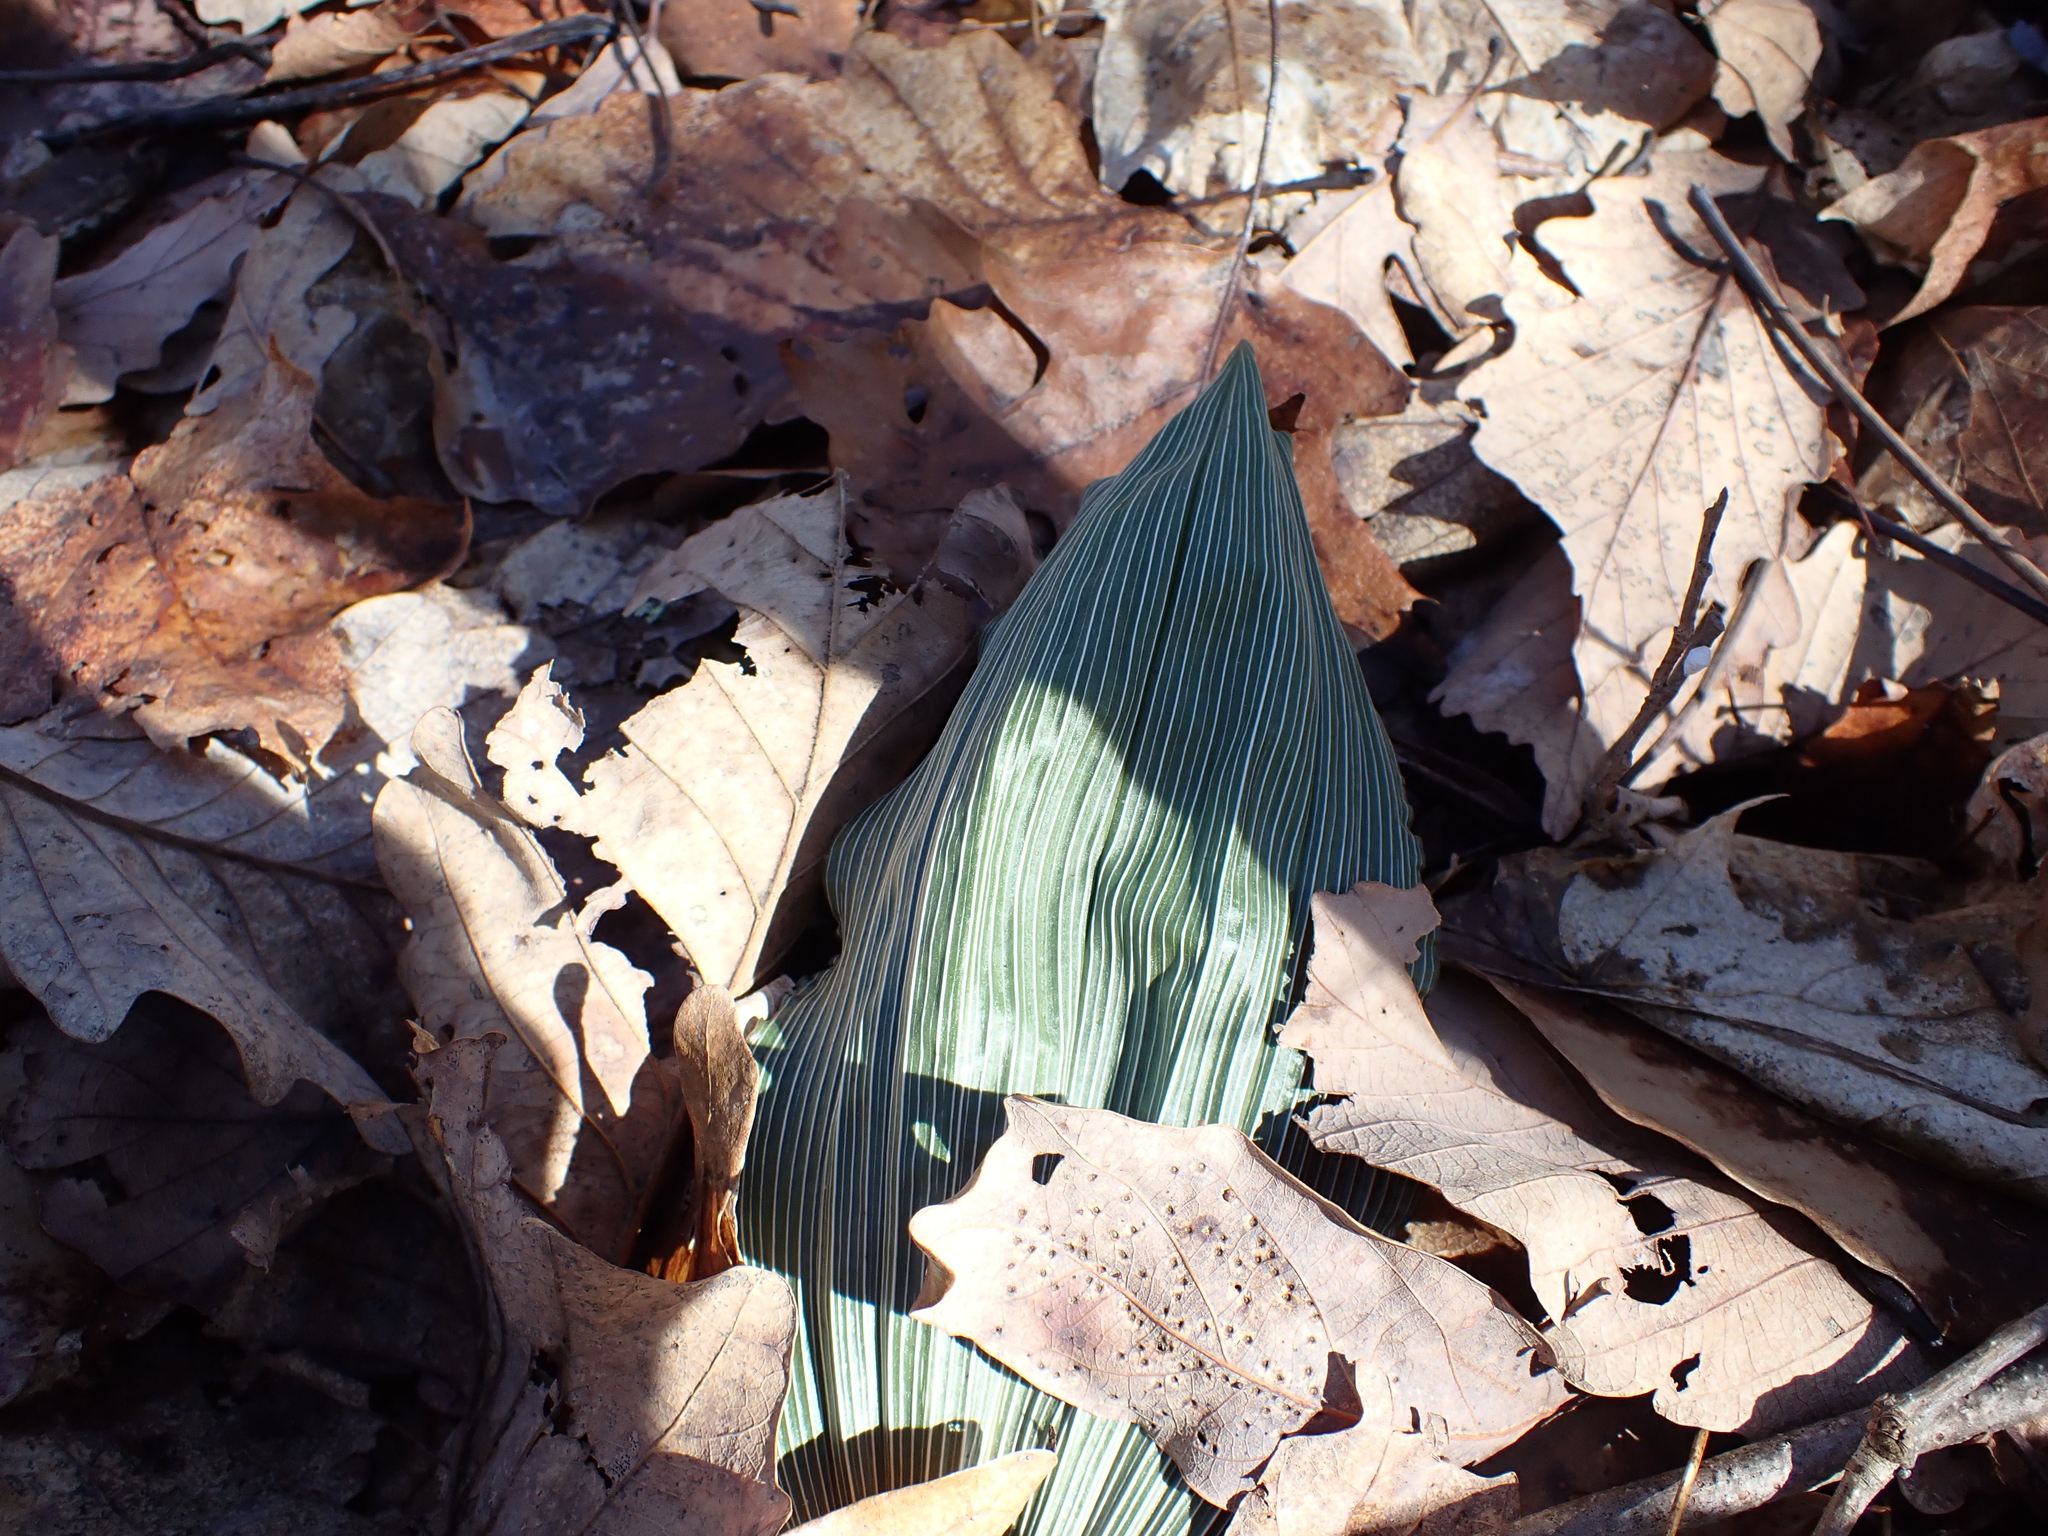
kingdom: Plantae
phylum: Tracheophyta
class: Liliopsida
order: Asparagales
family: Orchidaceae
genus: Aplectrum
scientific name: Aplectrum hyemale
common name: Adam-and-eve
